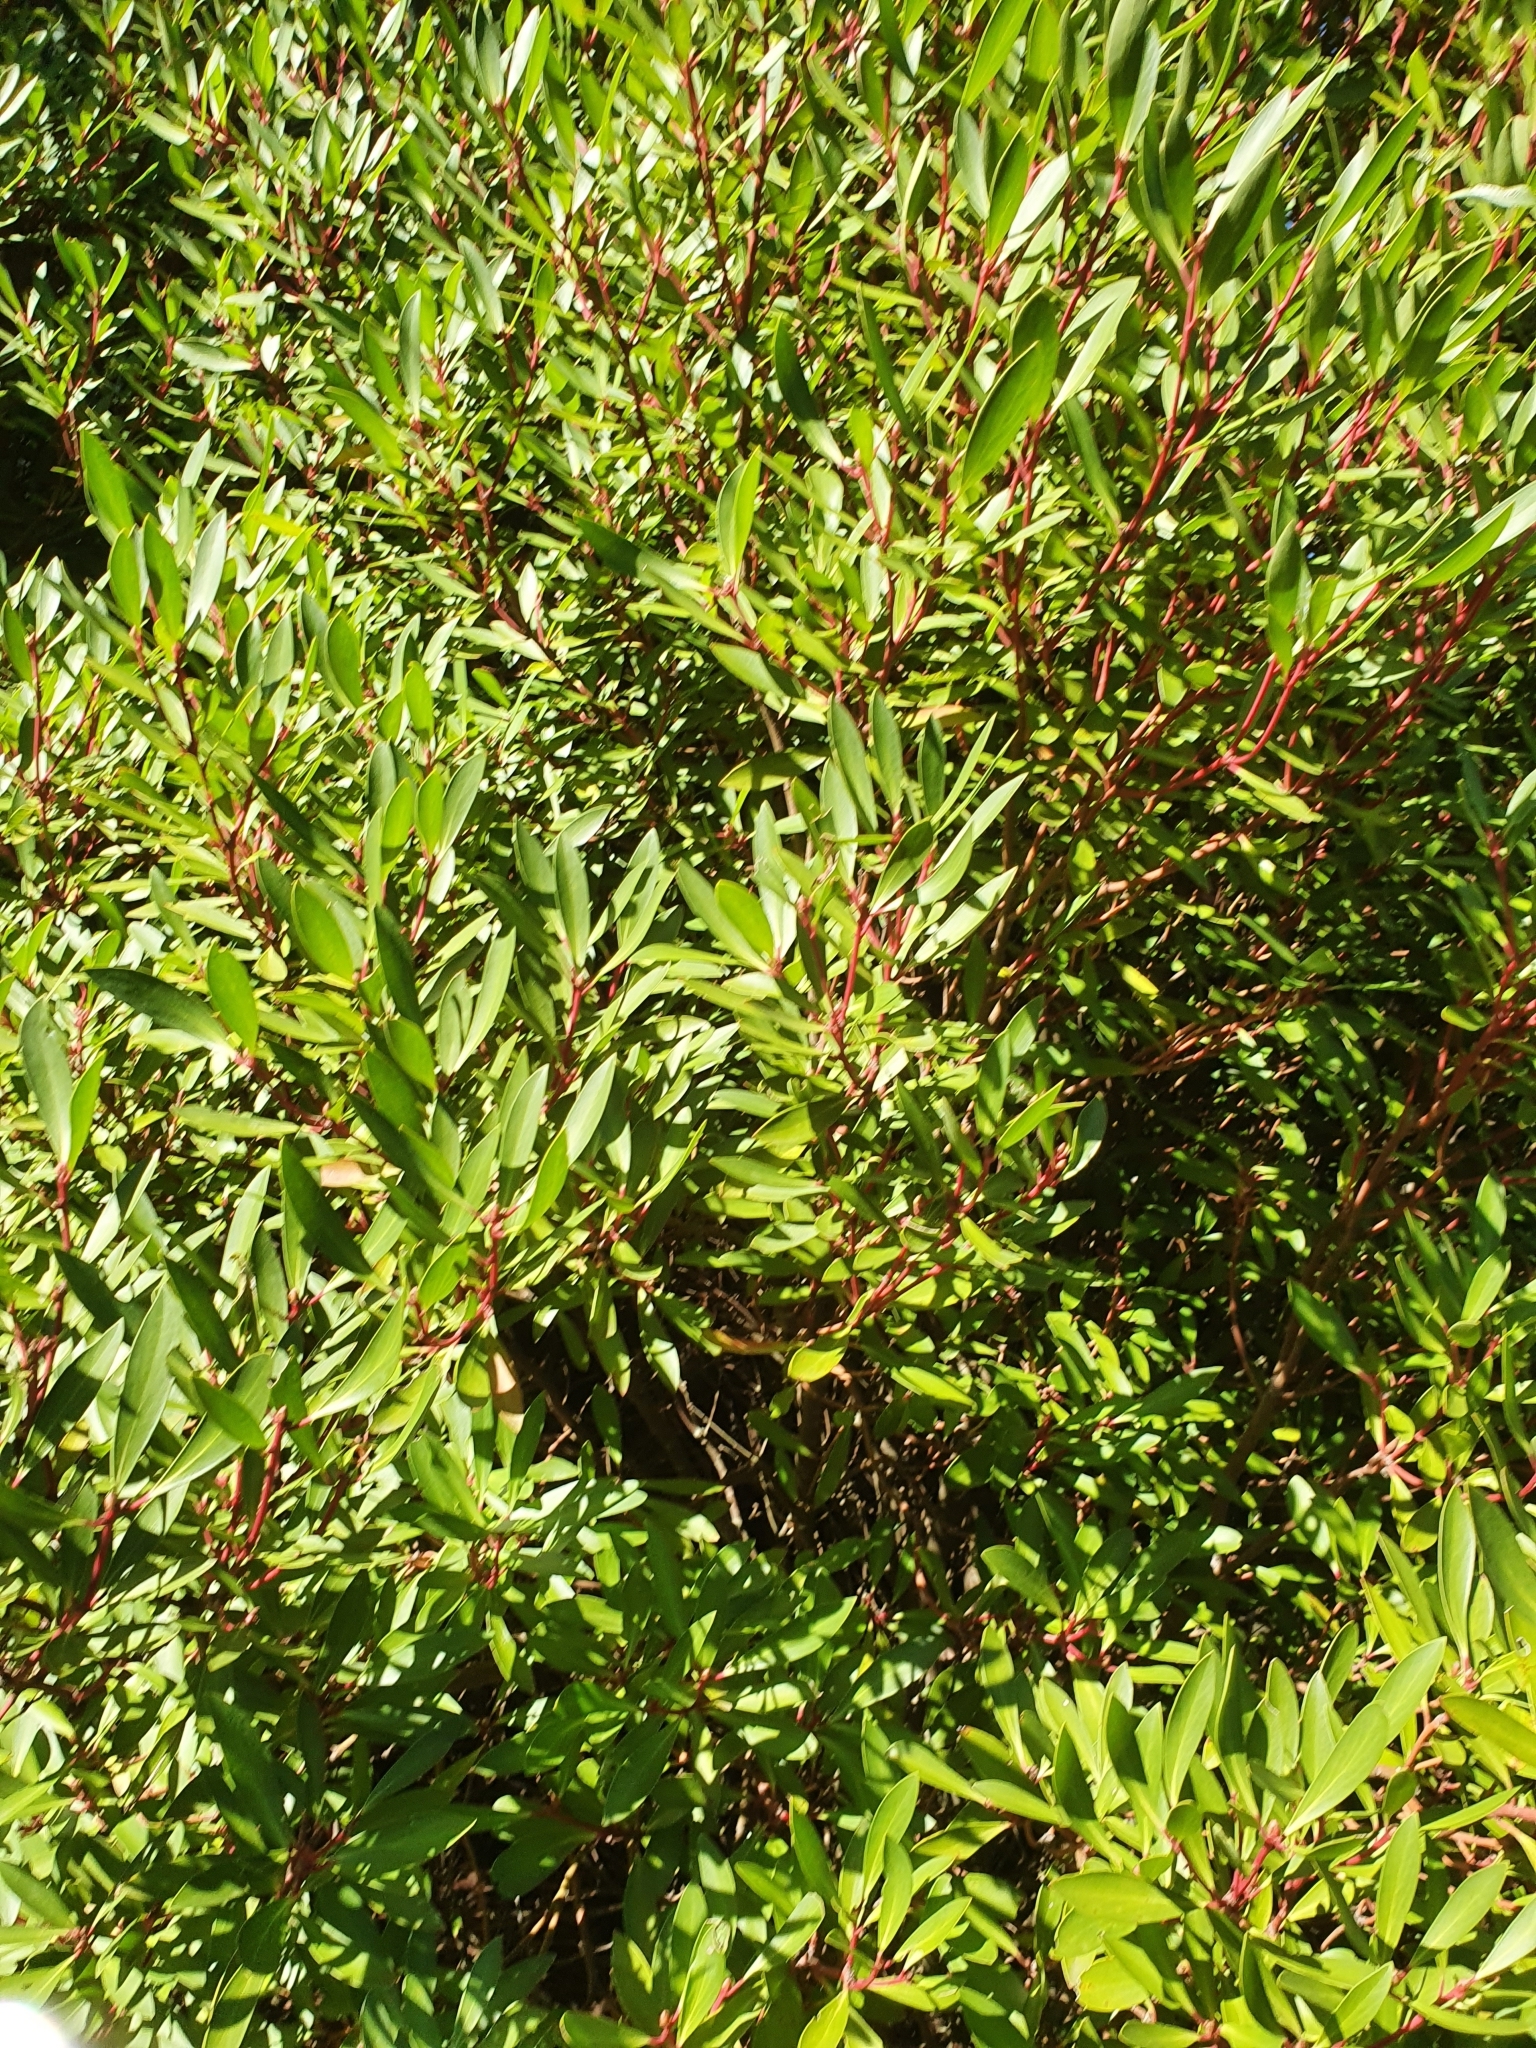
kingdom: Plantae
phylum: Tracheophyta
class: Magnoliopsida
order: Canellales
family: Winteraceae
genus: Drimys
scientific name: Drimys aromatica
